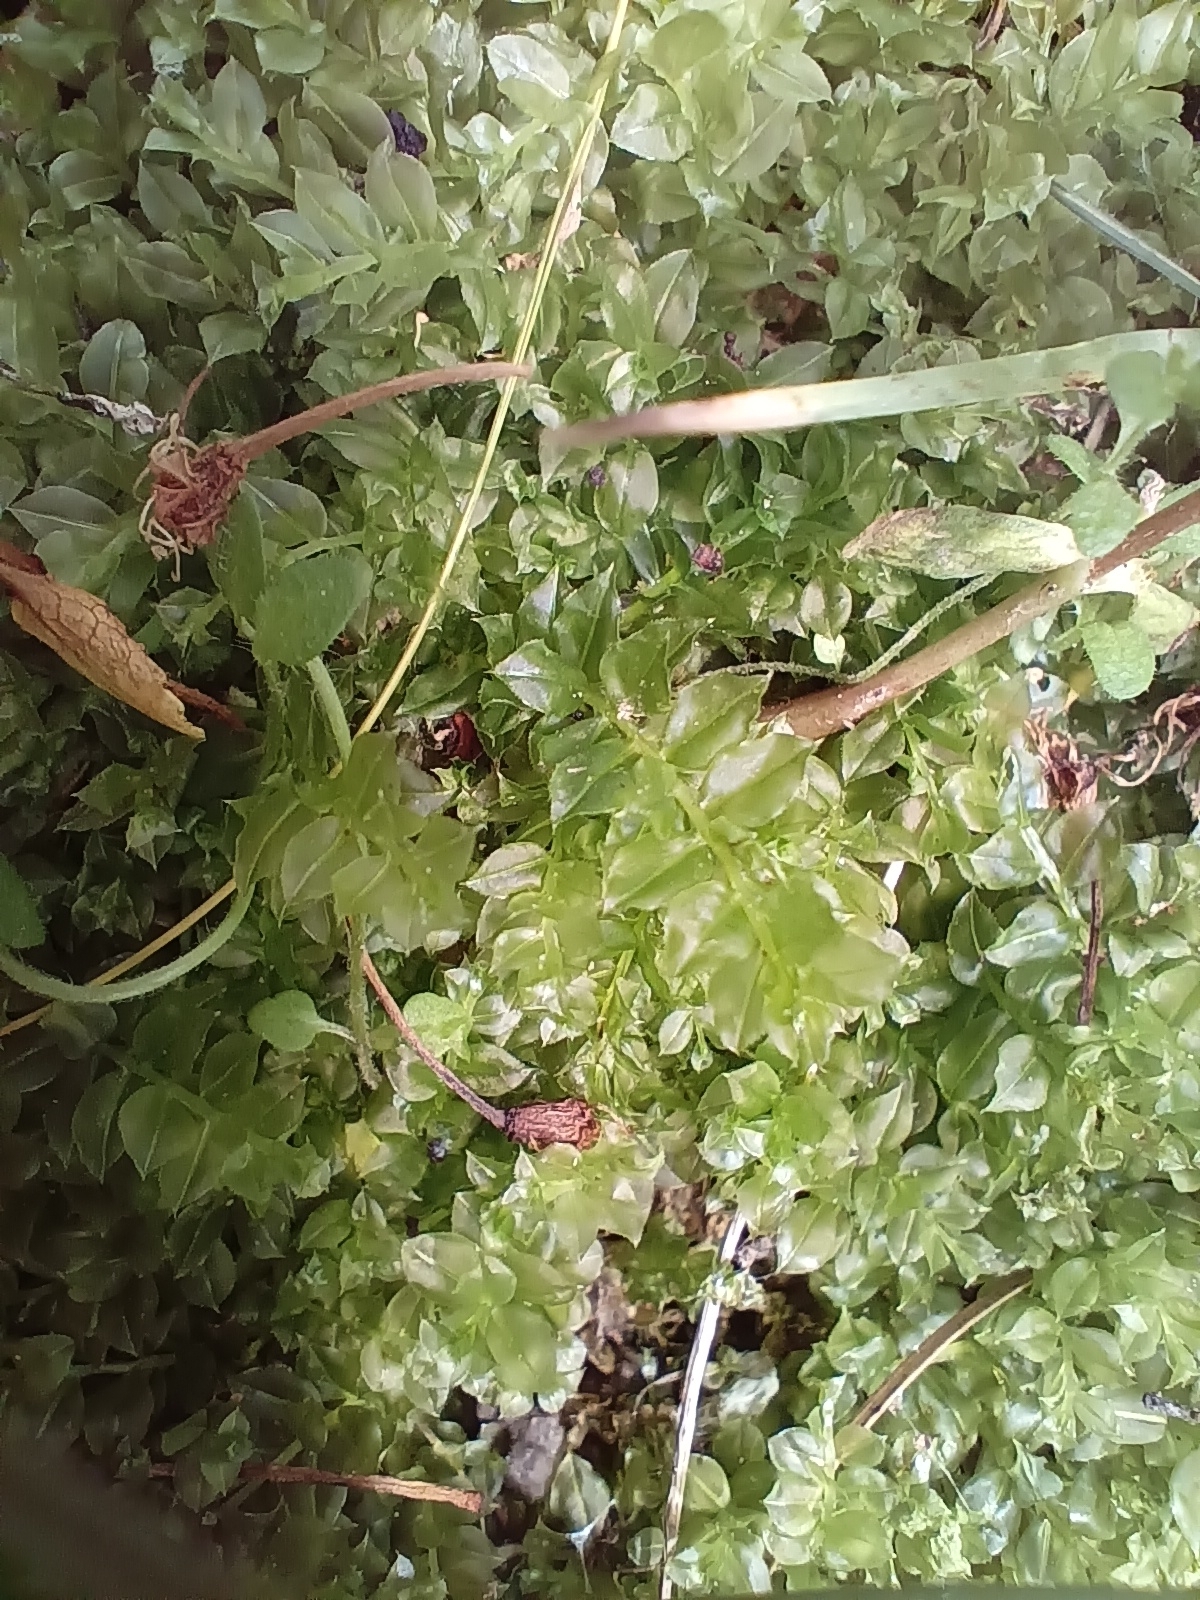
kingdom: Plantae
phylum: Bryophyta
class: Bryopsida
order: Bryales
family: Mniaceae
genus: Plagiomnium
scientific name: Plagiomnium cuspidatum
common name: Woodsy leafy moss
